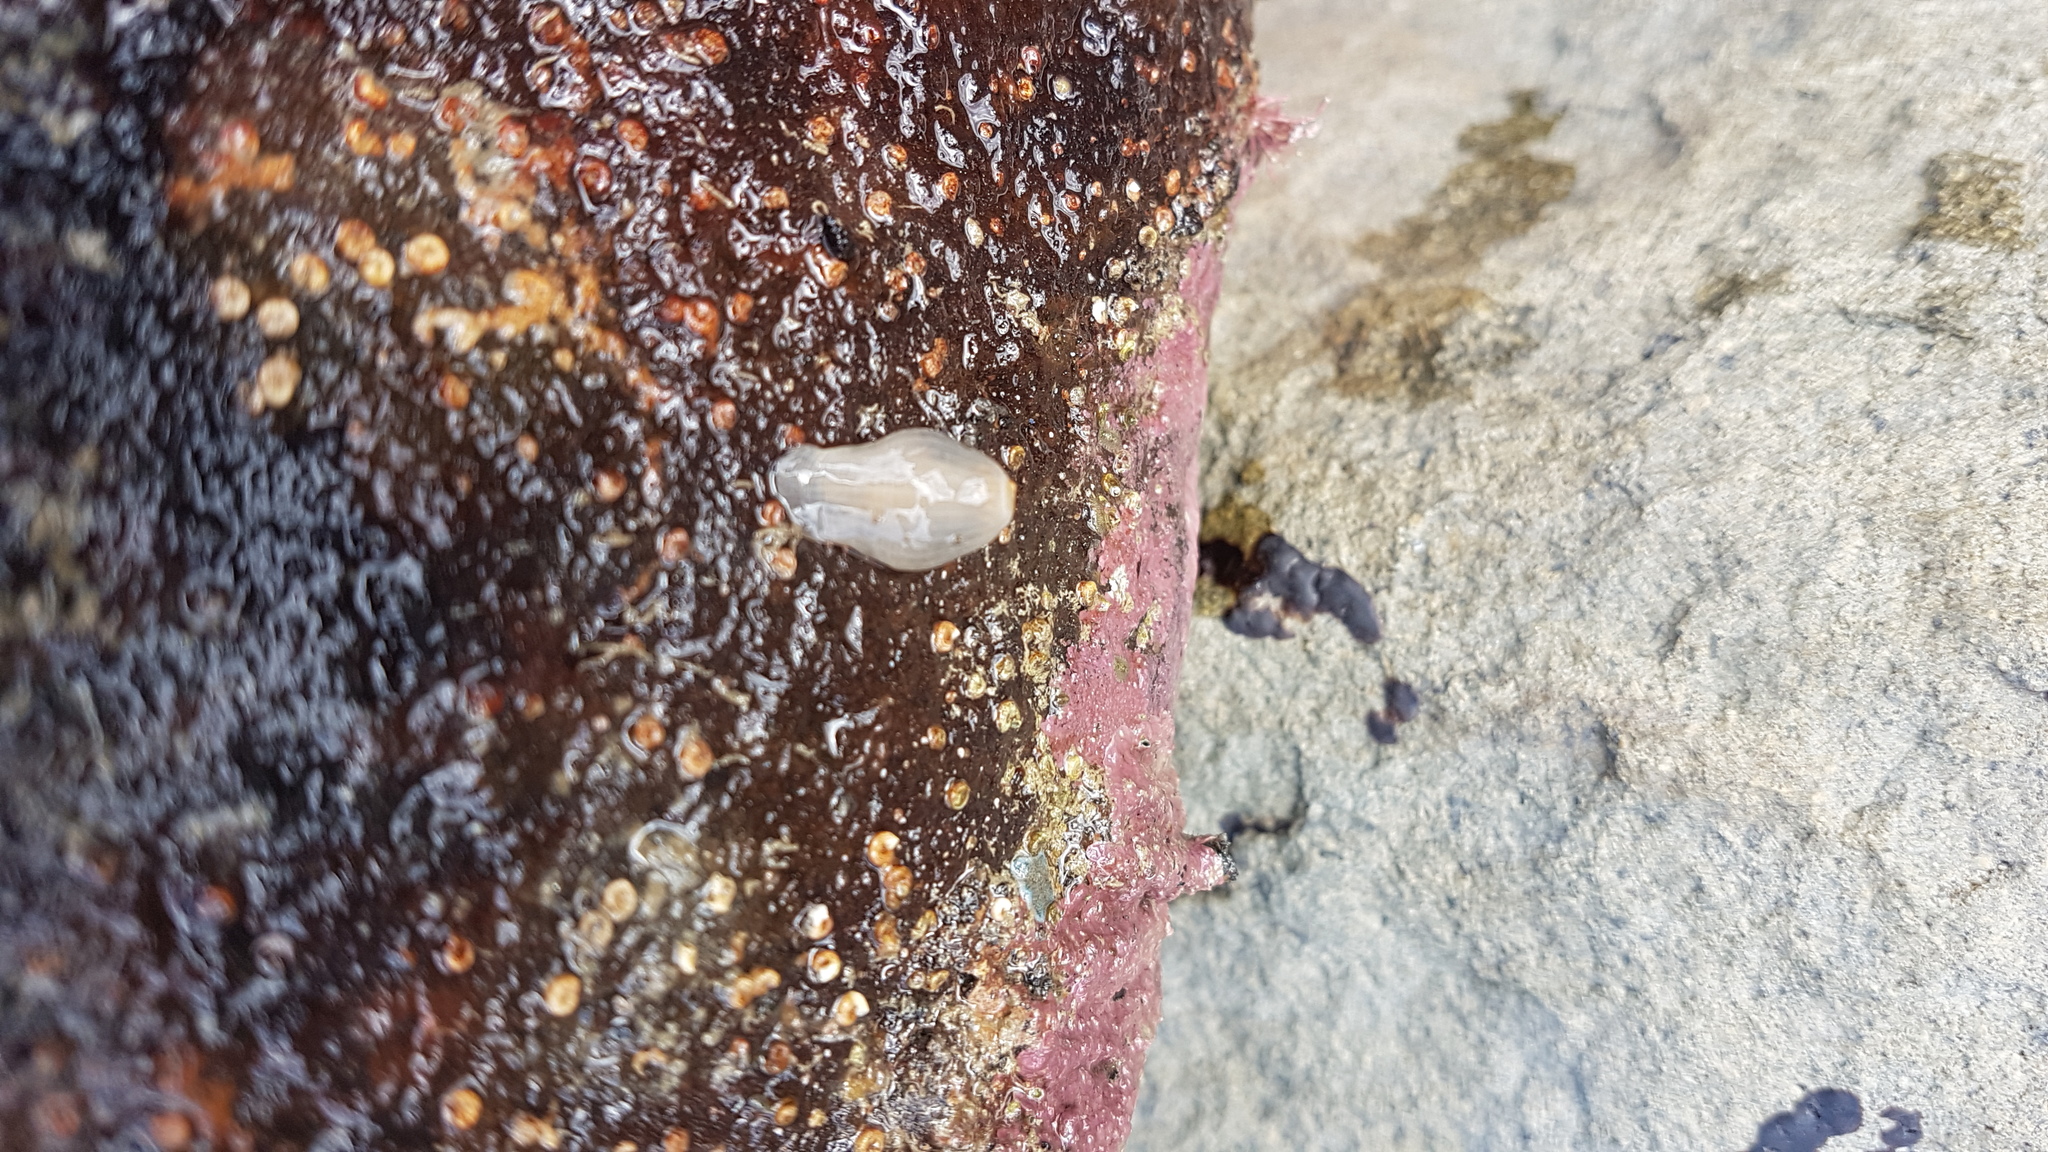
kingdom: Animalia
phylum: Cnidaria
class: Anthozoa
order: Actiniaria
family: Isanthidae
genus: Isoparactis
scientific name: Isoparactis ferax
